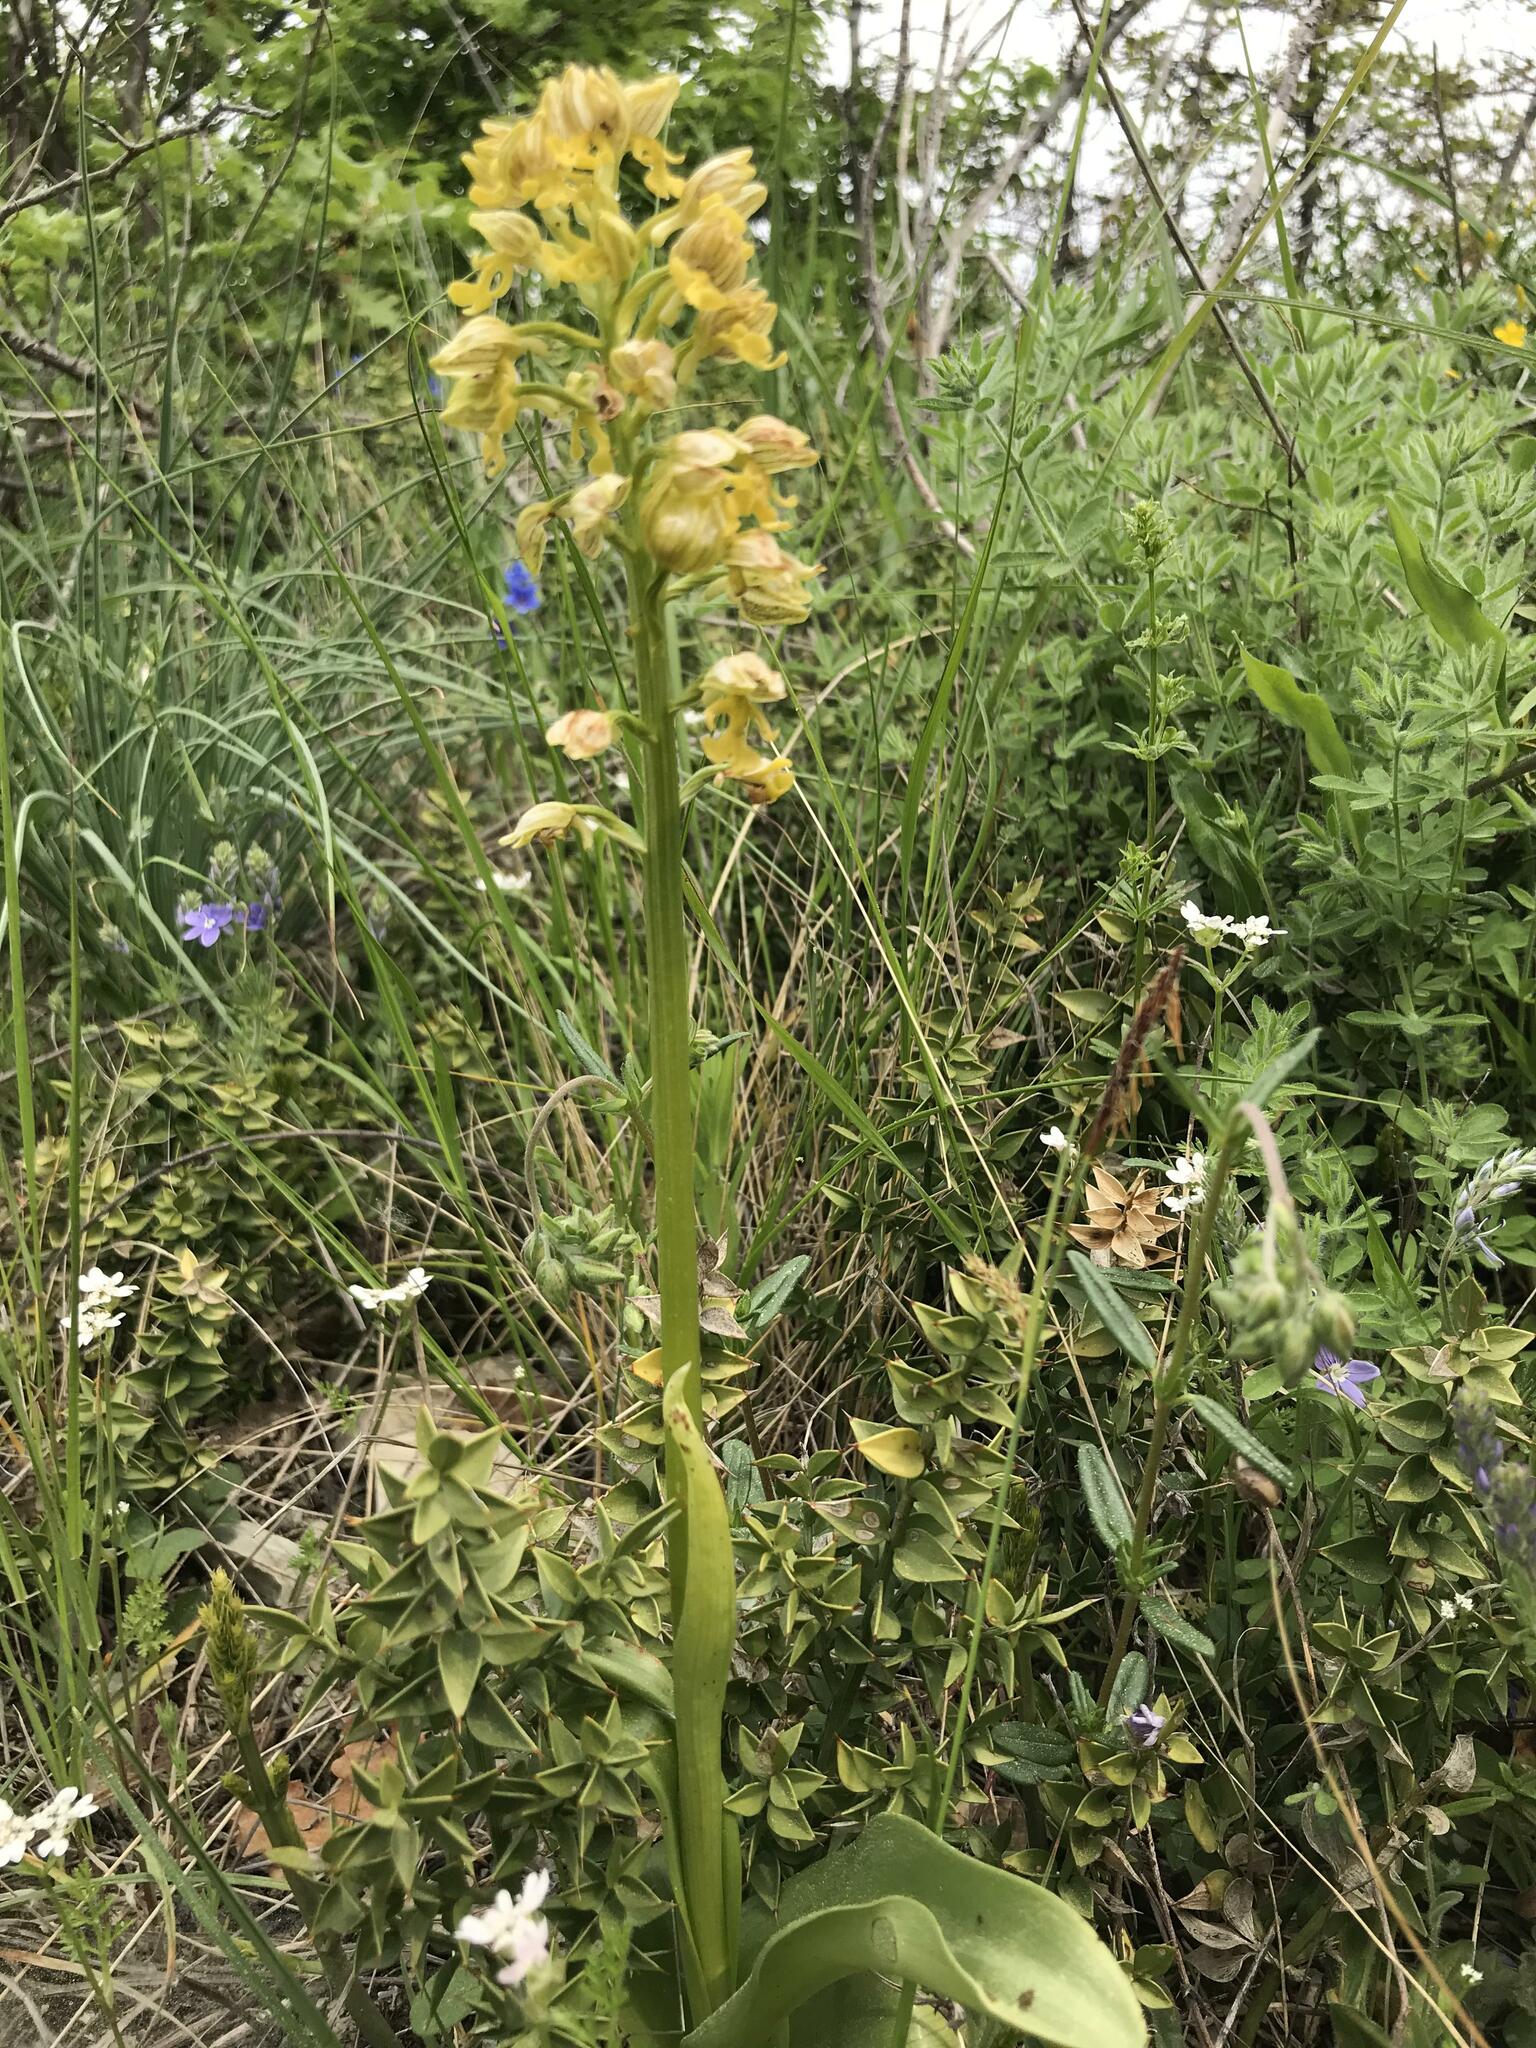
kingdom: Plantae
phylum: Tracheophyta
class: Liliopsida
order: Asparagales
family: Orchidaceae
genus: Orchis
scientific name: Orchis punctulata
